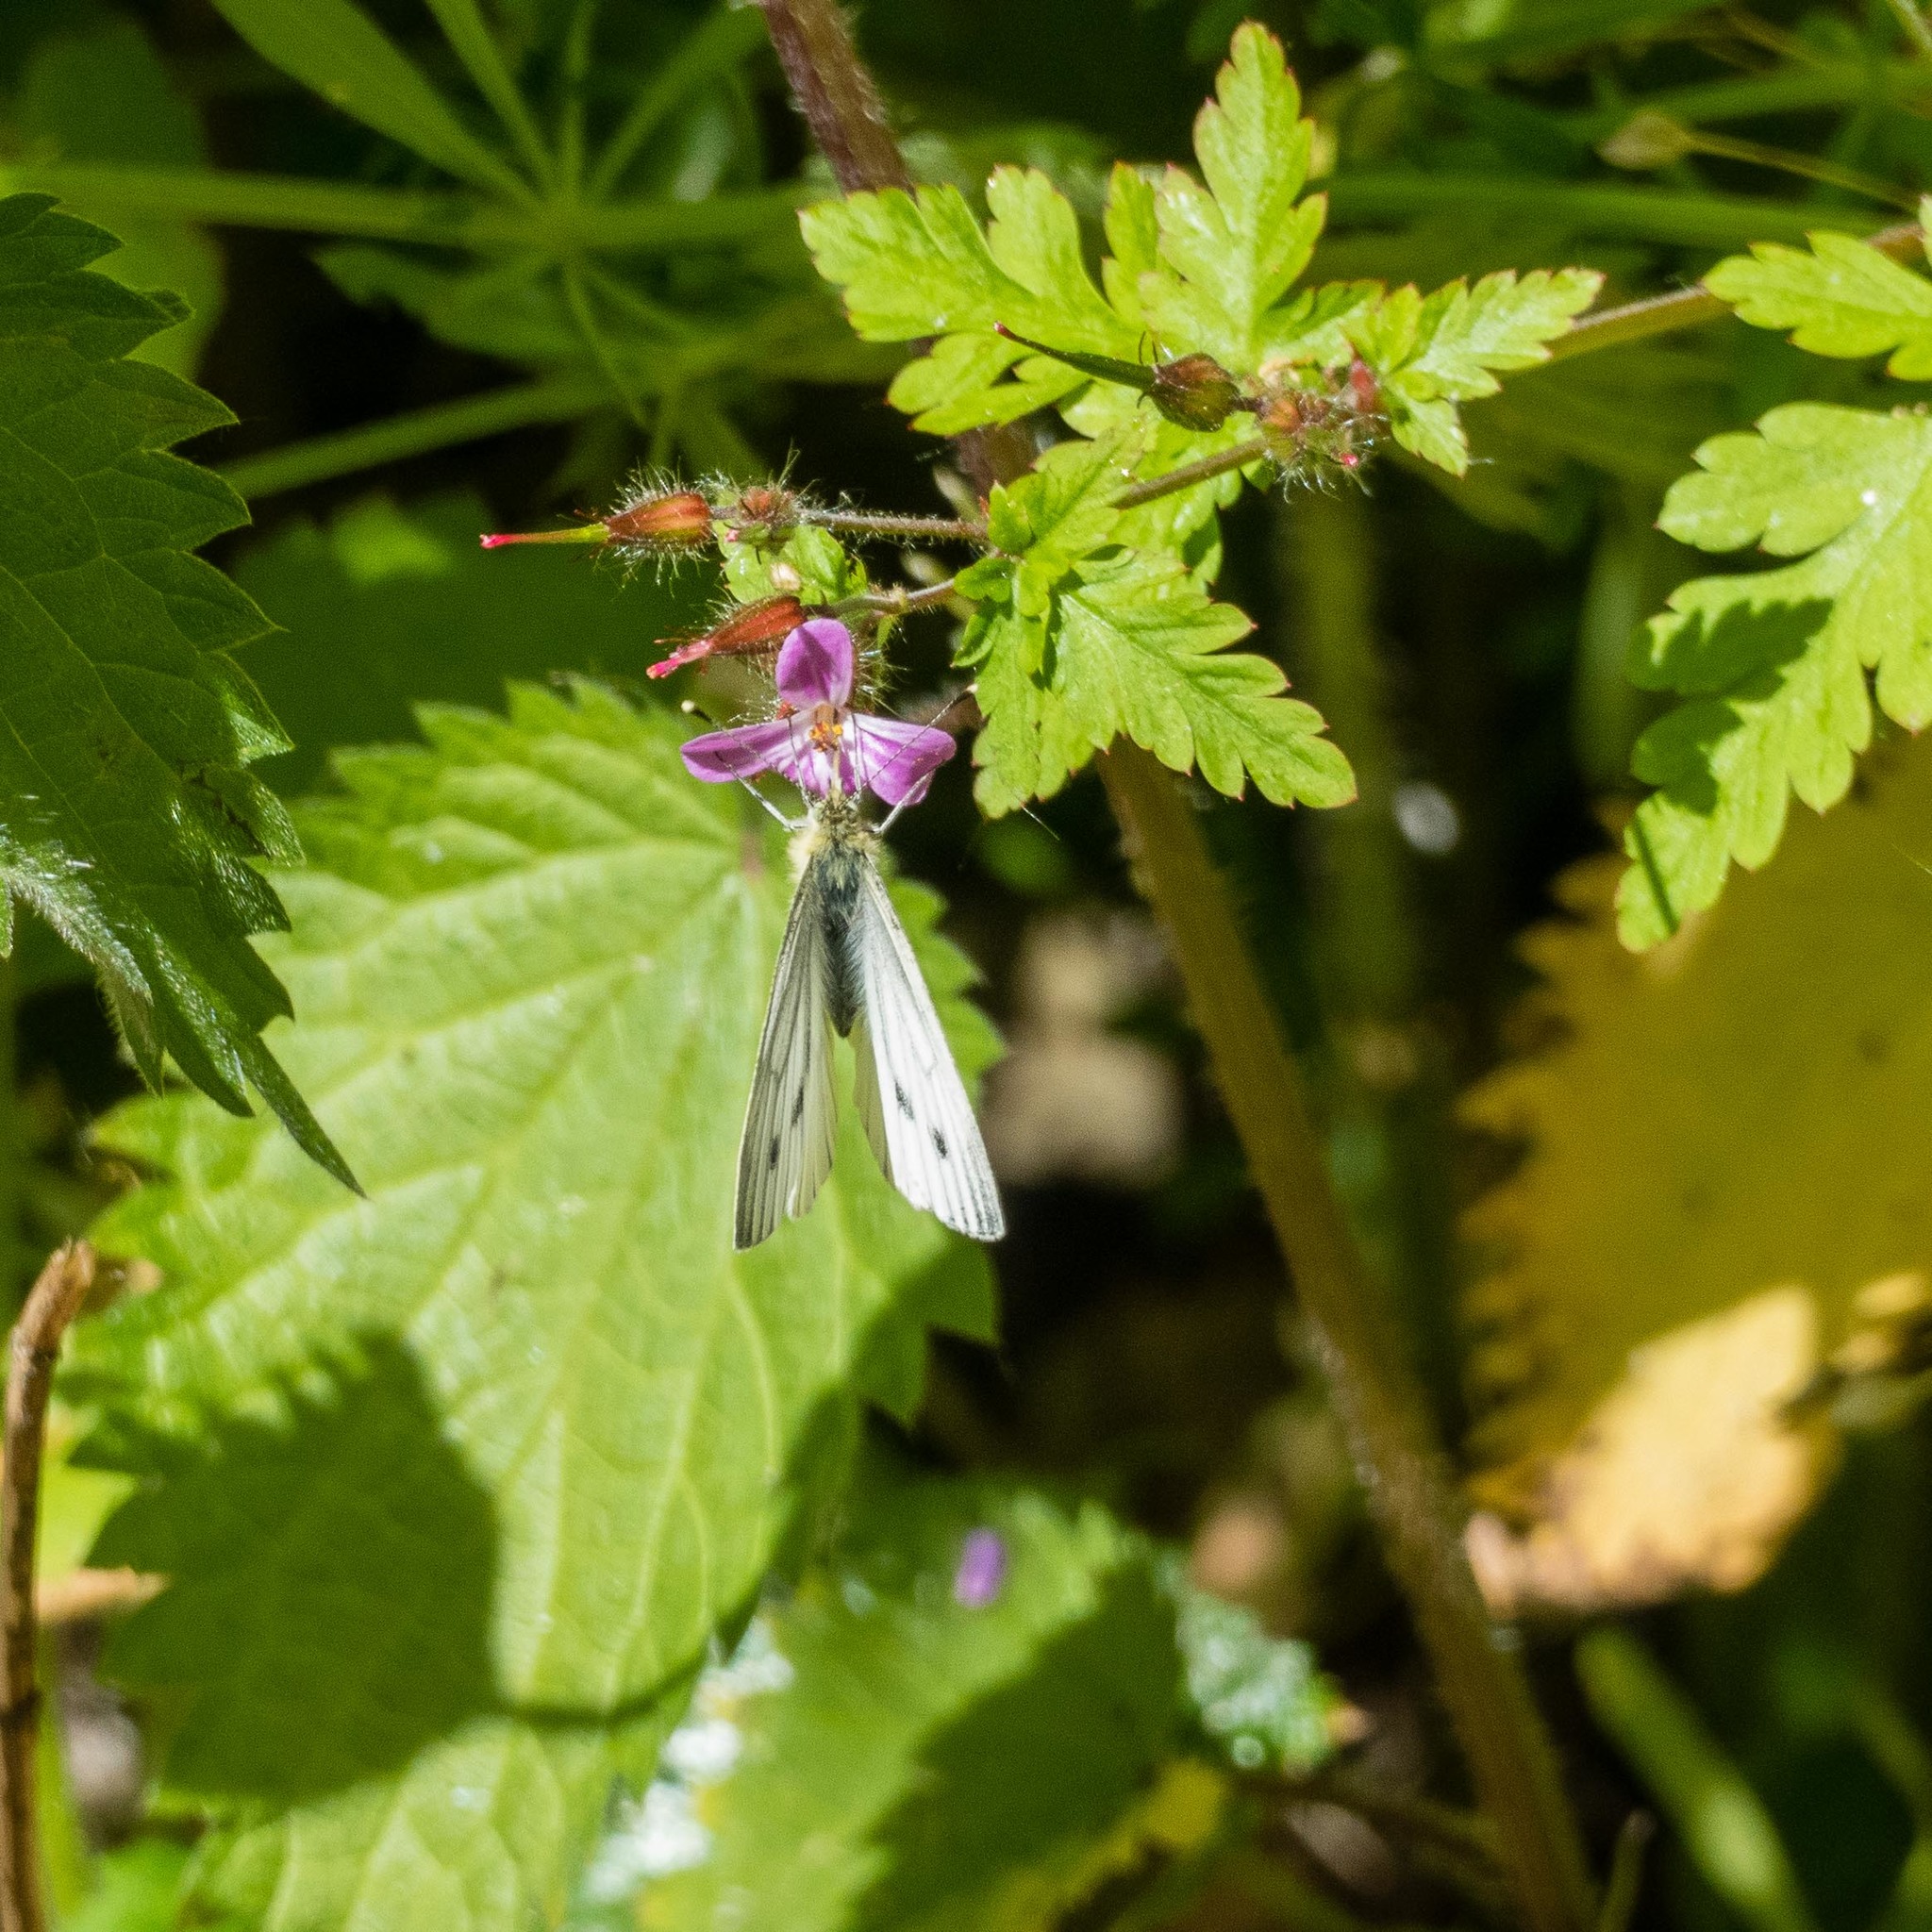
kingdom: Animalia
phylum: Arthropoda
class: Insecta
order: Lepidoptera
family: Pieridae
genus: Pieris
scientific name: Pieris napi
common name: Green-veined white
